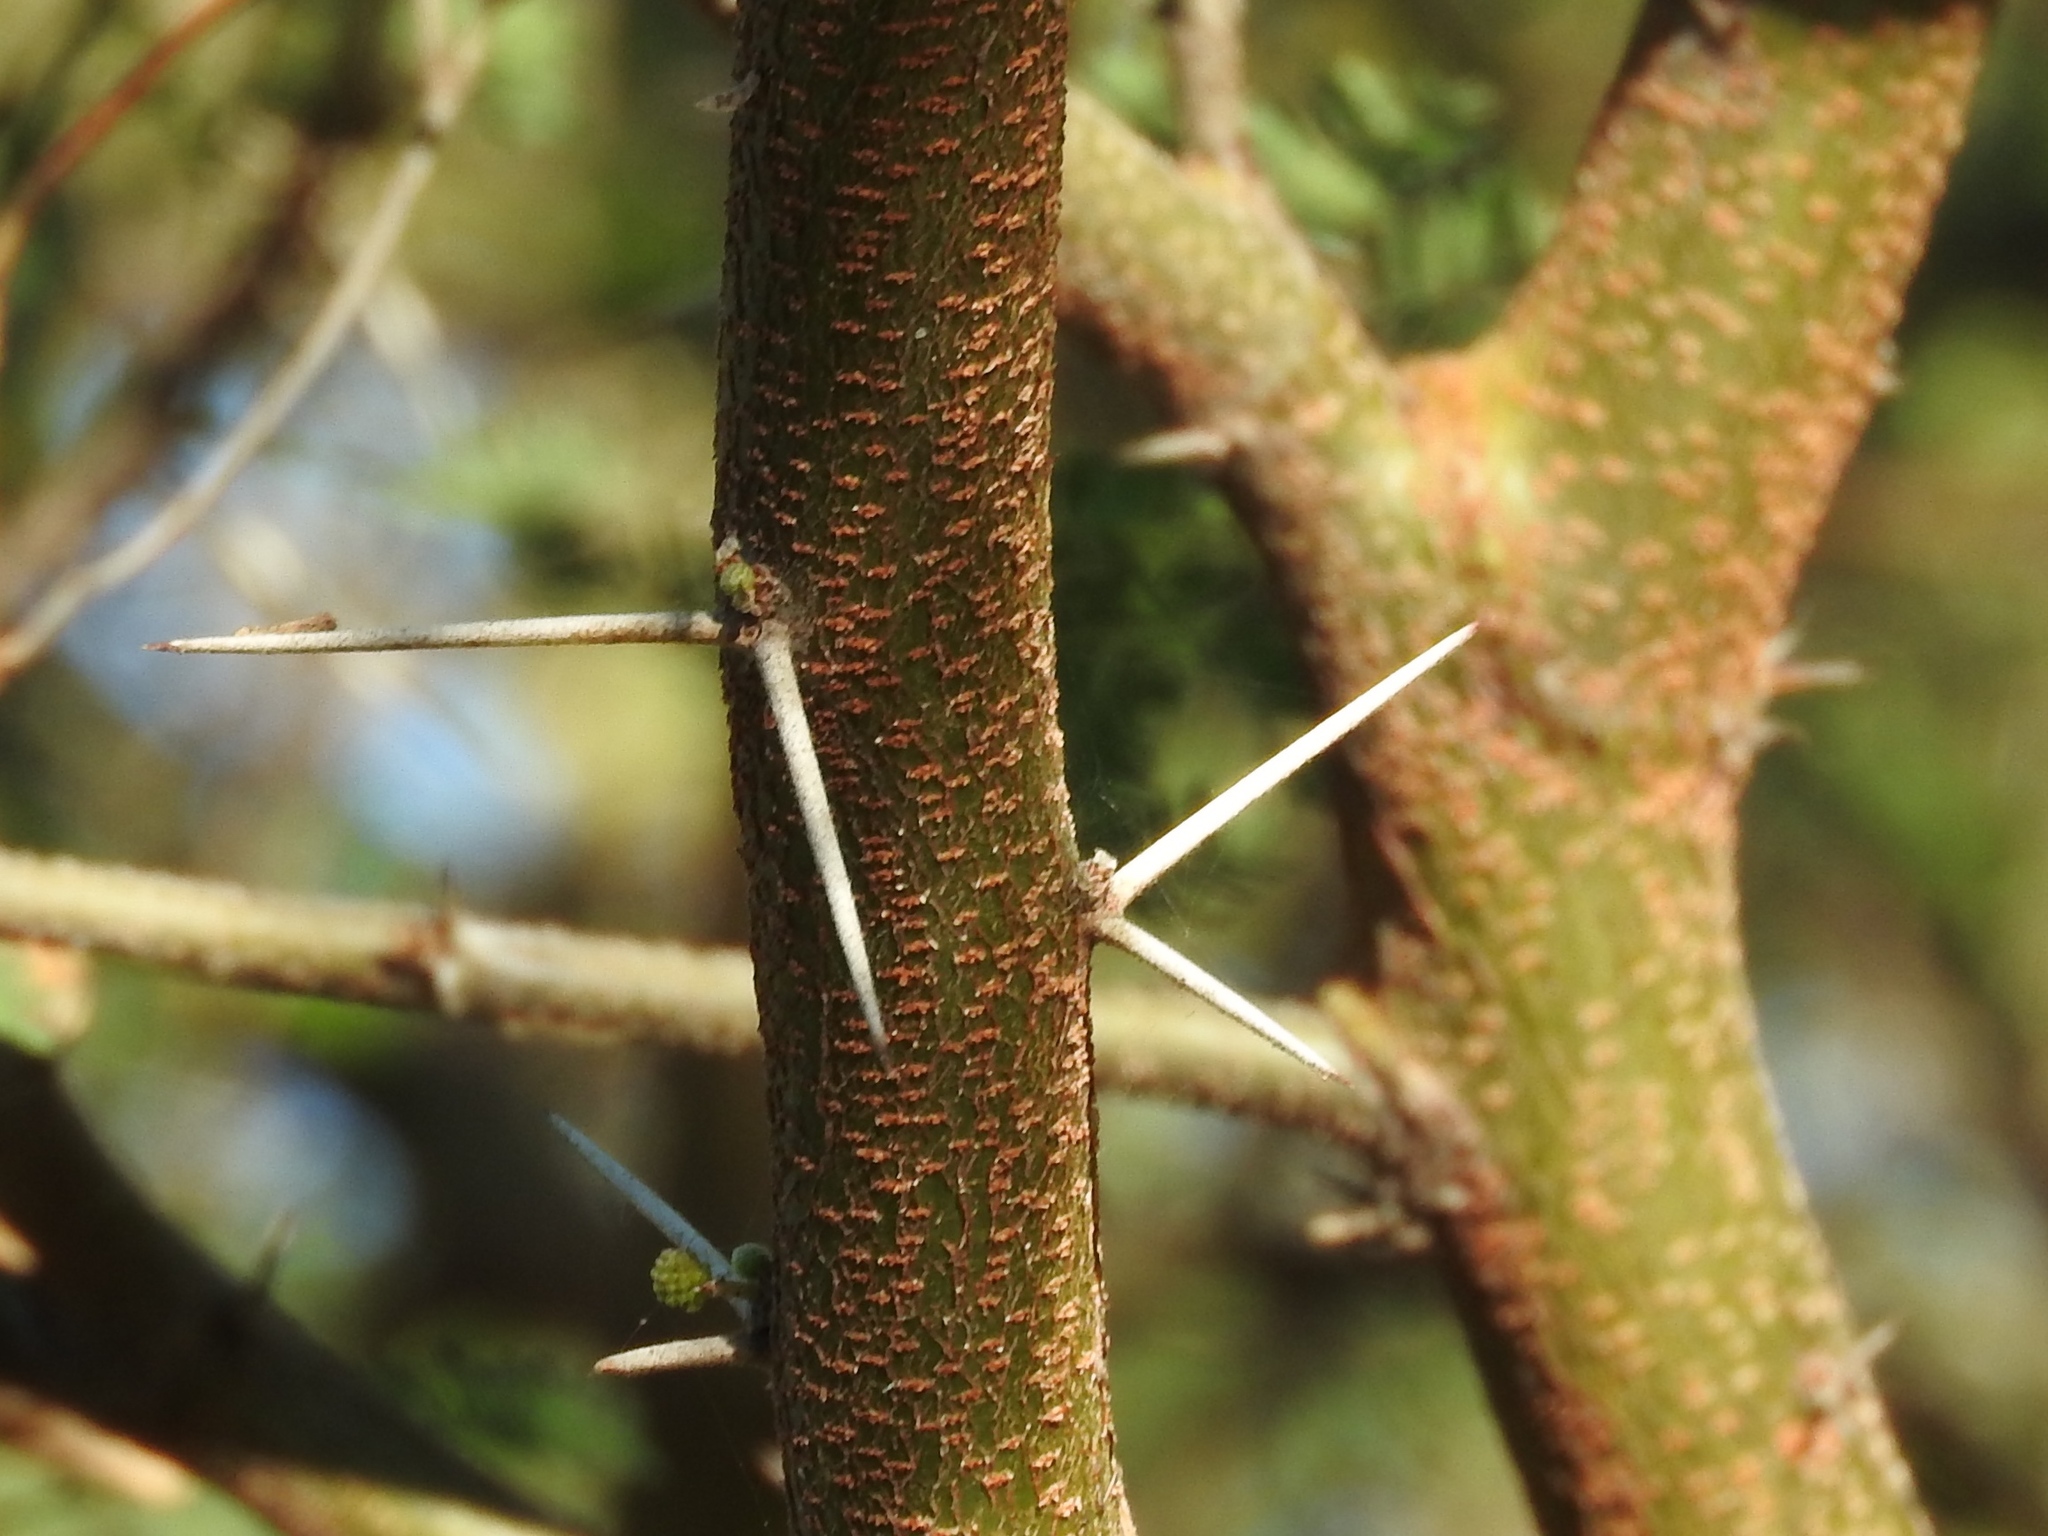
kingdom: Plantae
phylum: Tracheophyta
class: Magnoliopsida
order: Fabales
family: Fabaceae
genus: Vachellia
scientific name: Vachellia farnesiana
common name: Sweet acacia
